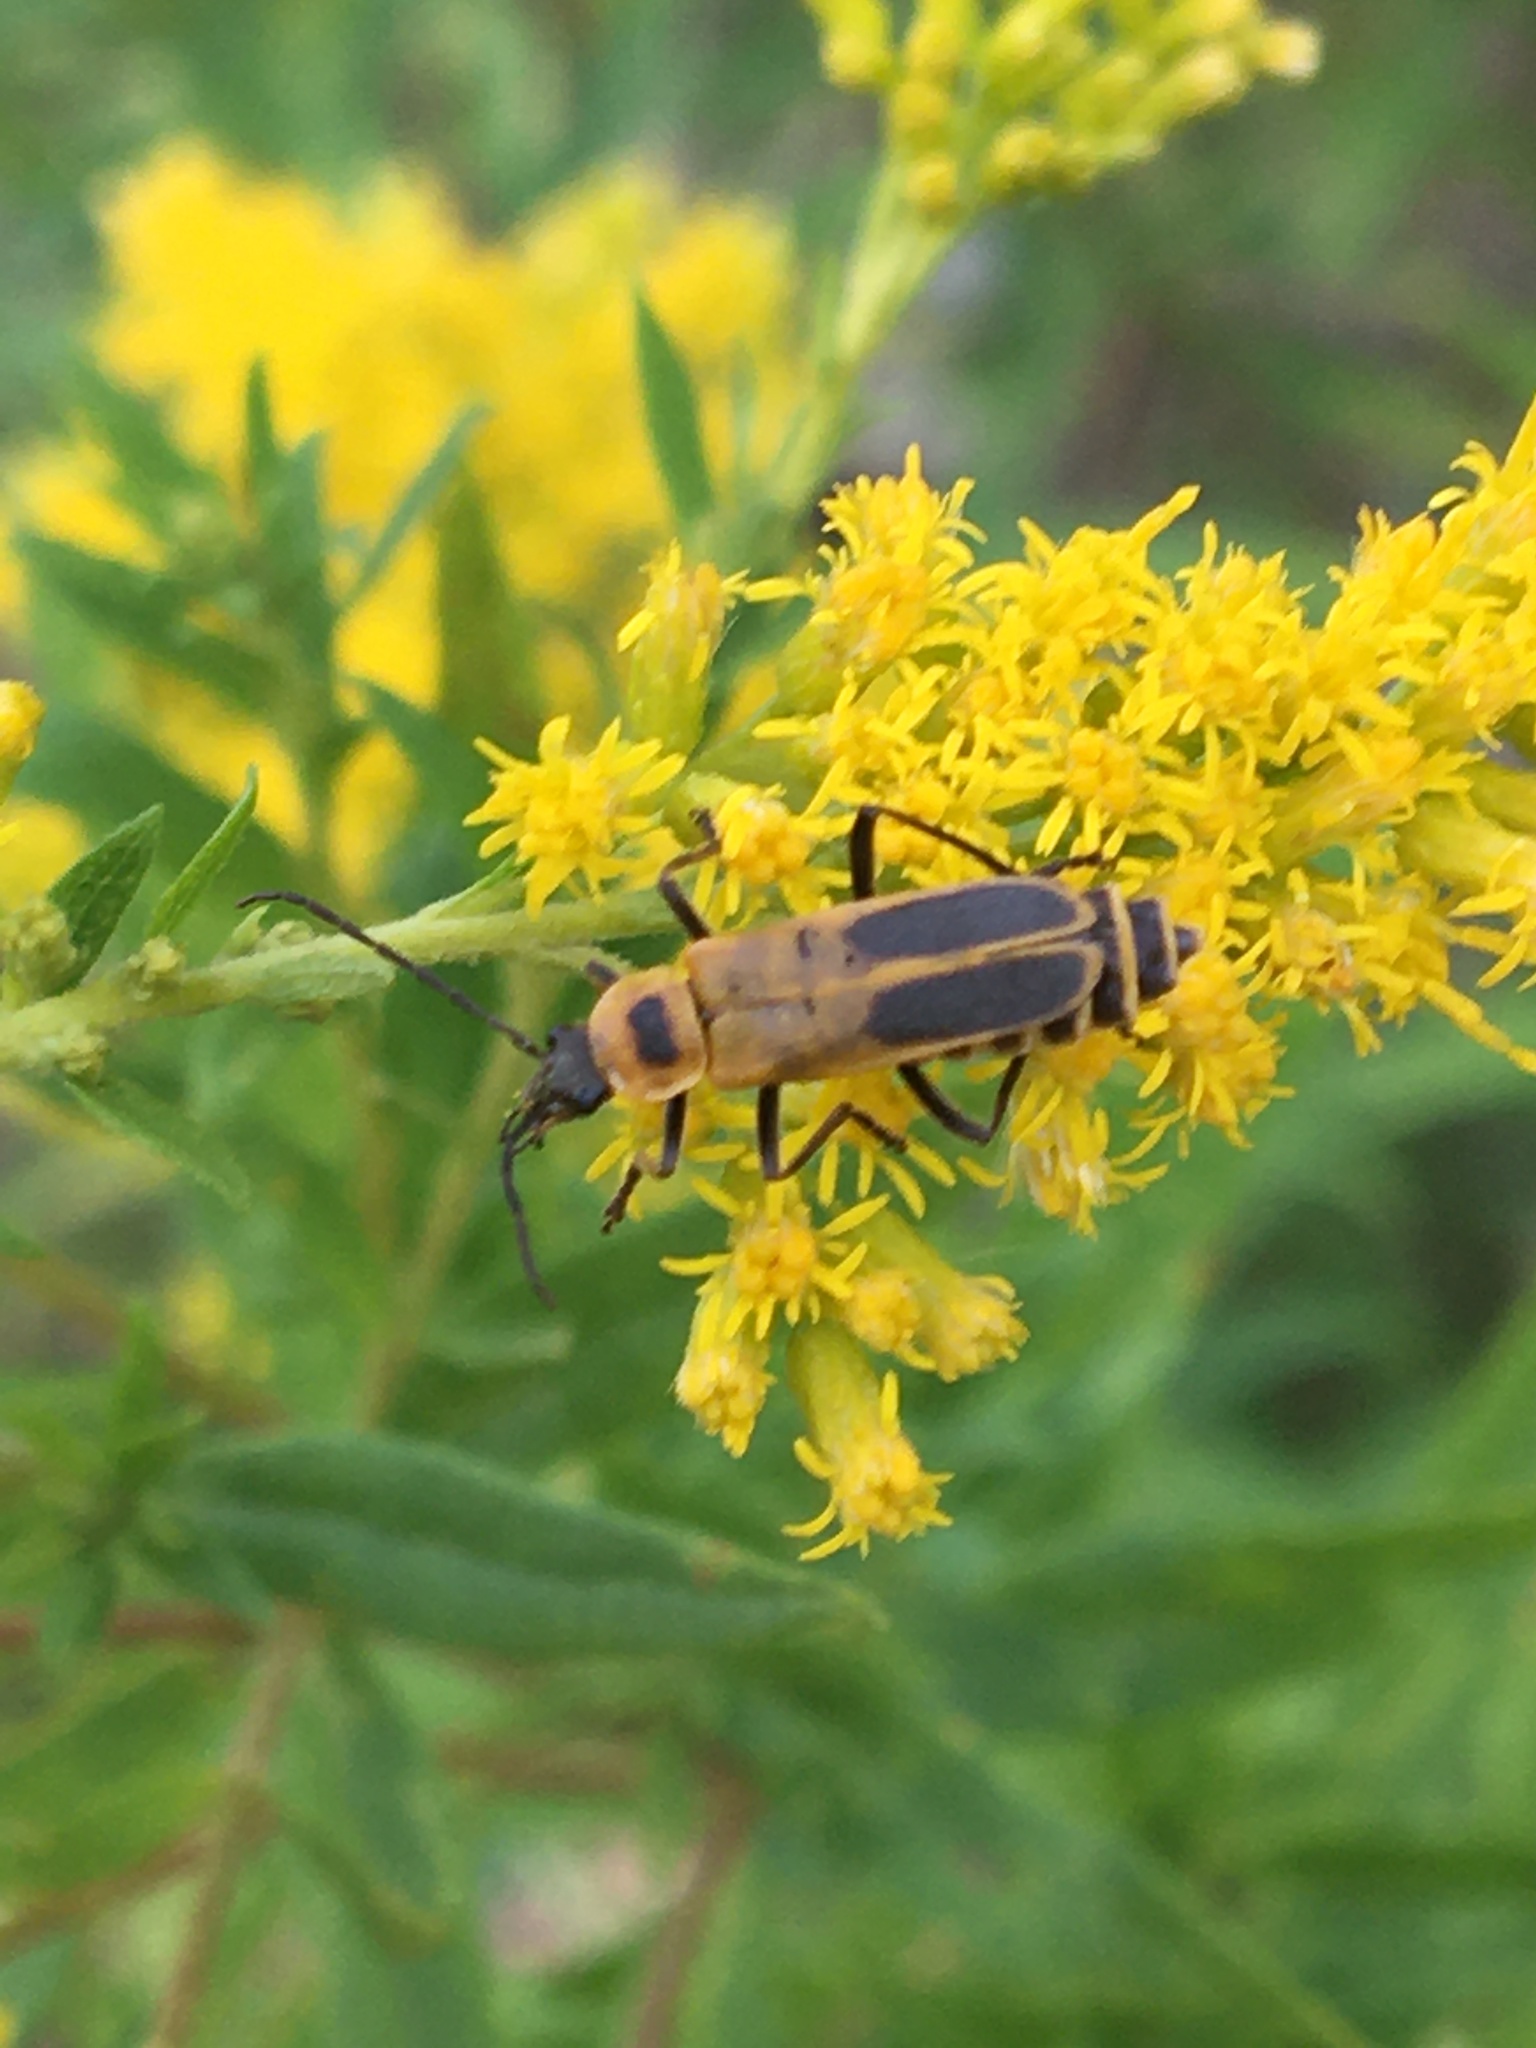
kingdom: Animalia
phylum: Arthropoda
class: Insecta
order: Coleoptera
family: Cantharidae
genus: Chauliognathus
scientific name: Chauliognathus pensylvanicus
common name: Goldenrod soldier beetle
